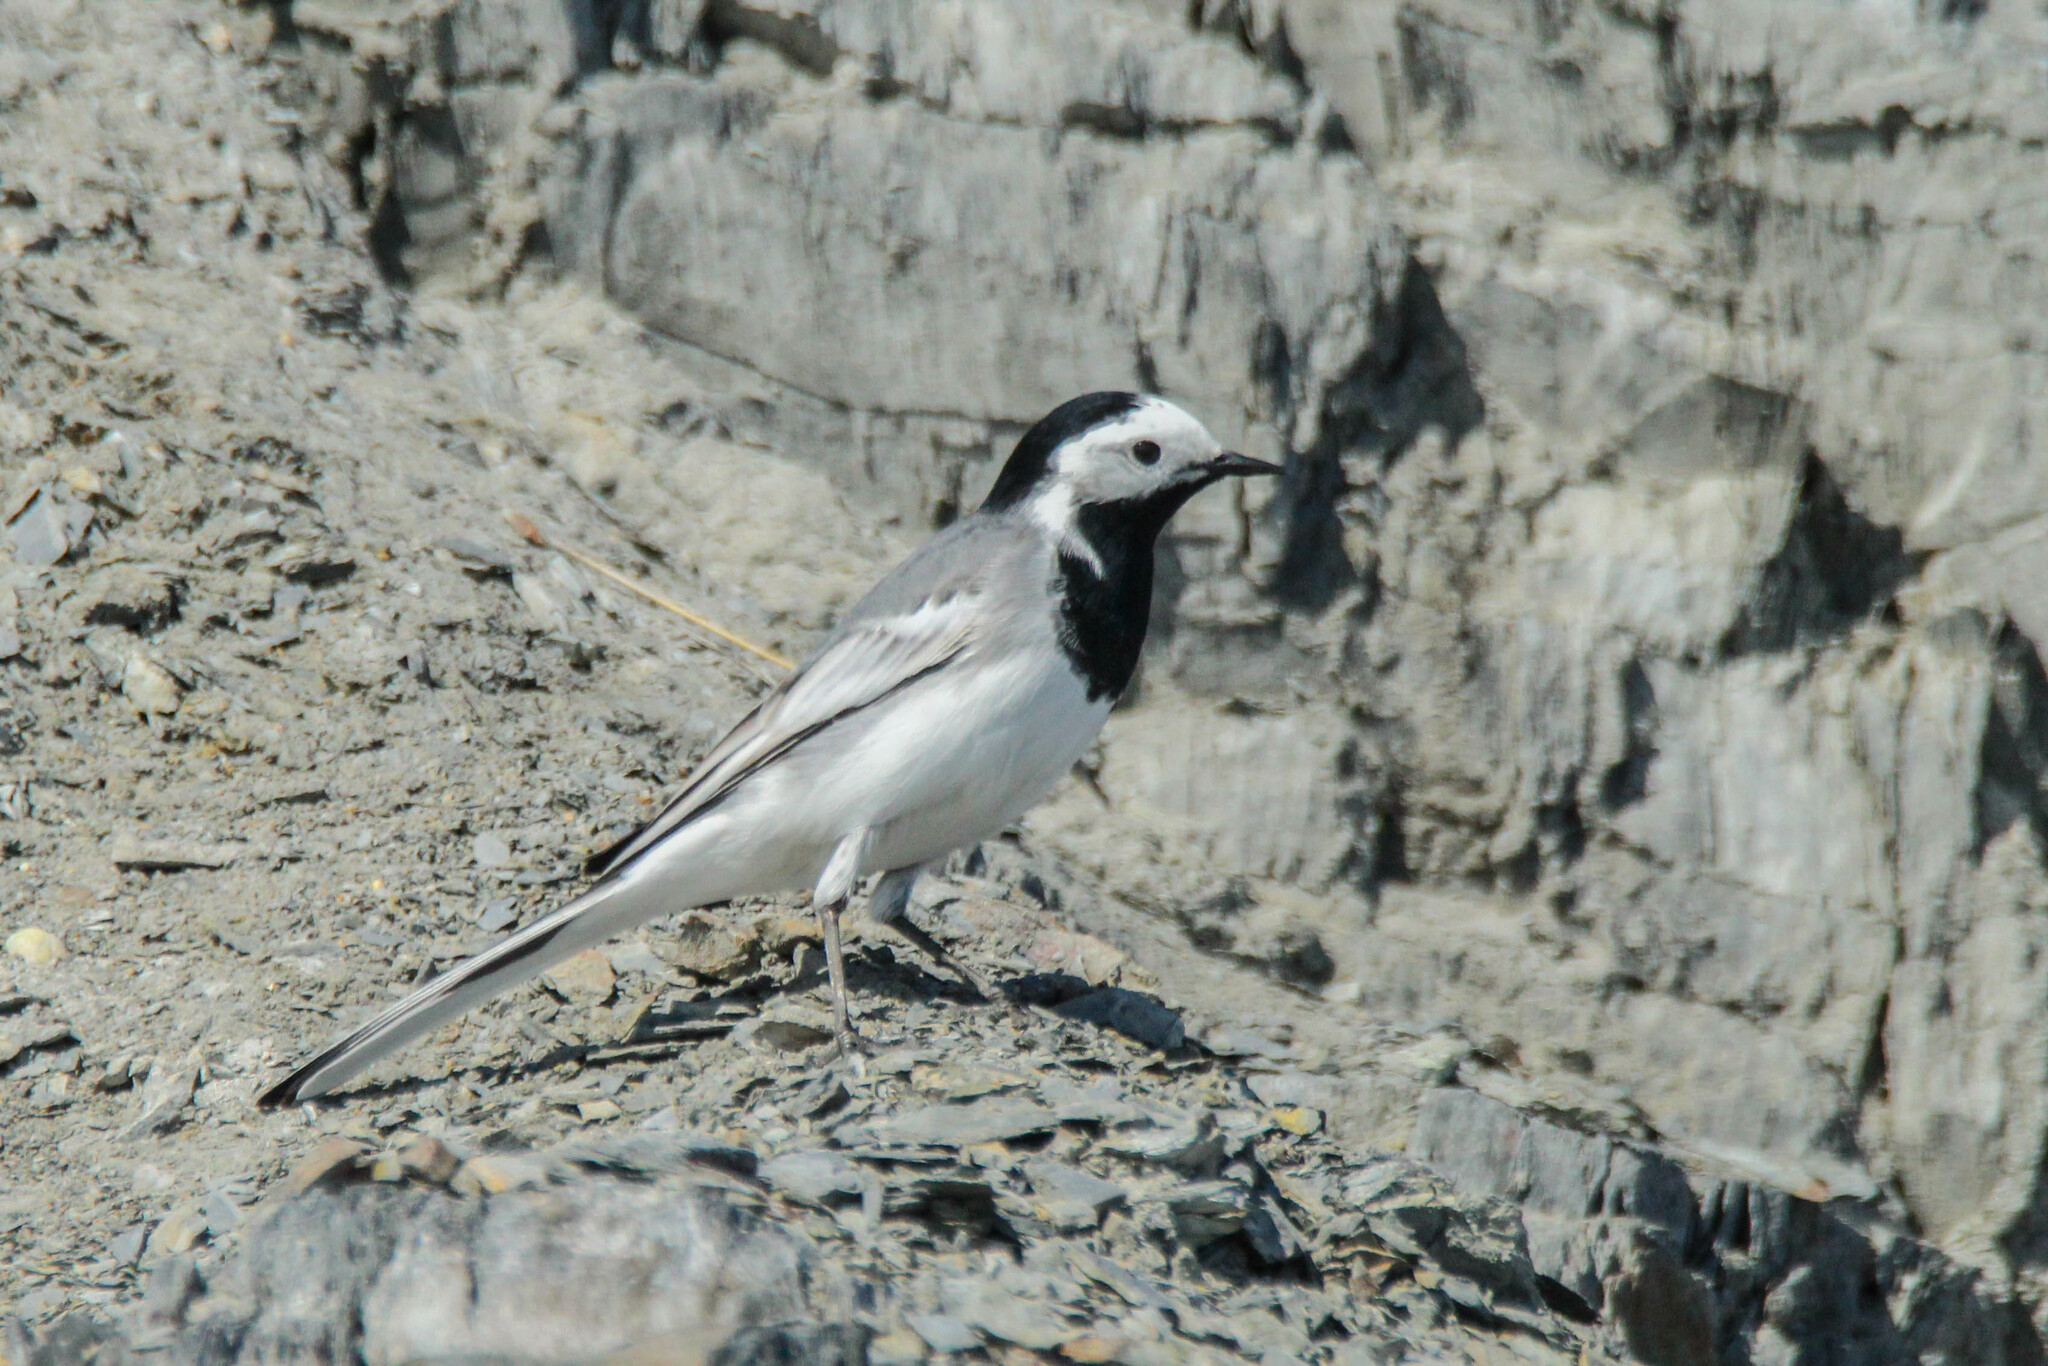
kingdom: Animalia
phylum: Chordata
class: Aves
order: Passeriformes
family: Motacillidae
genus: Motacilla
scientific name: Motacilla alba
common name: White wagtail
